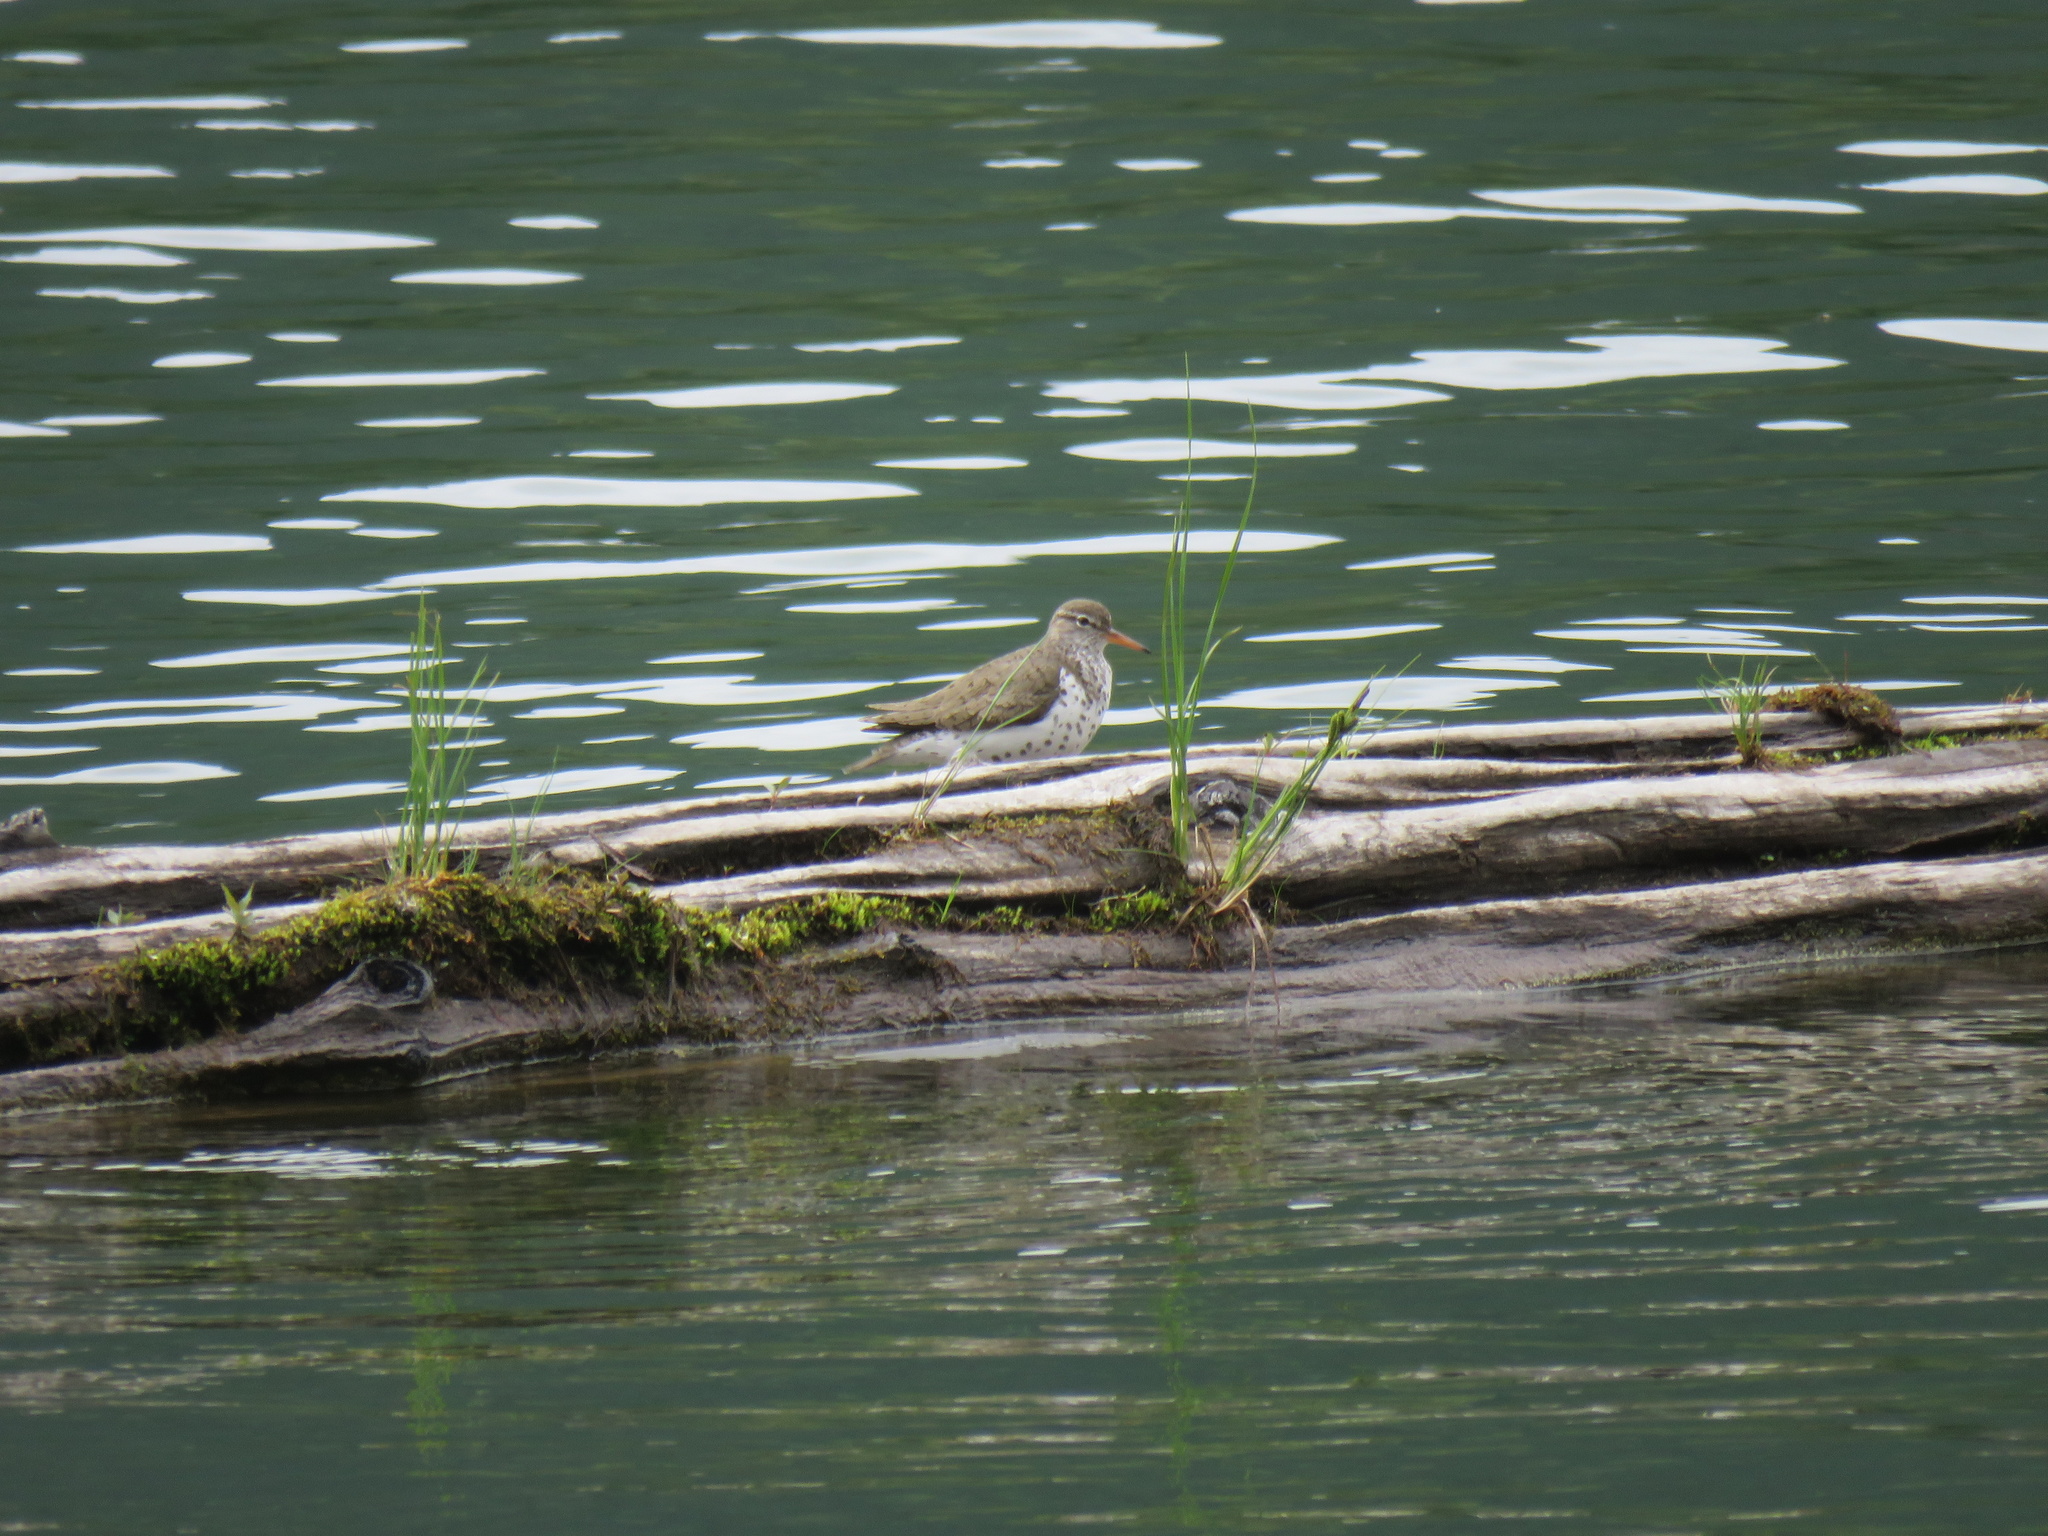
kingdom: Animalia
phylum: Chordata
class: Aves
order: Charadriiformes
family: Scolopacidae
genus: Actitis
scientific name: Actitis macularius
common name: Spotted sandpiper
